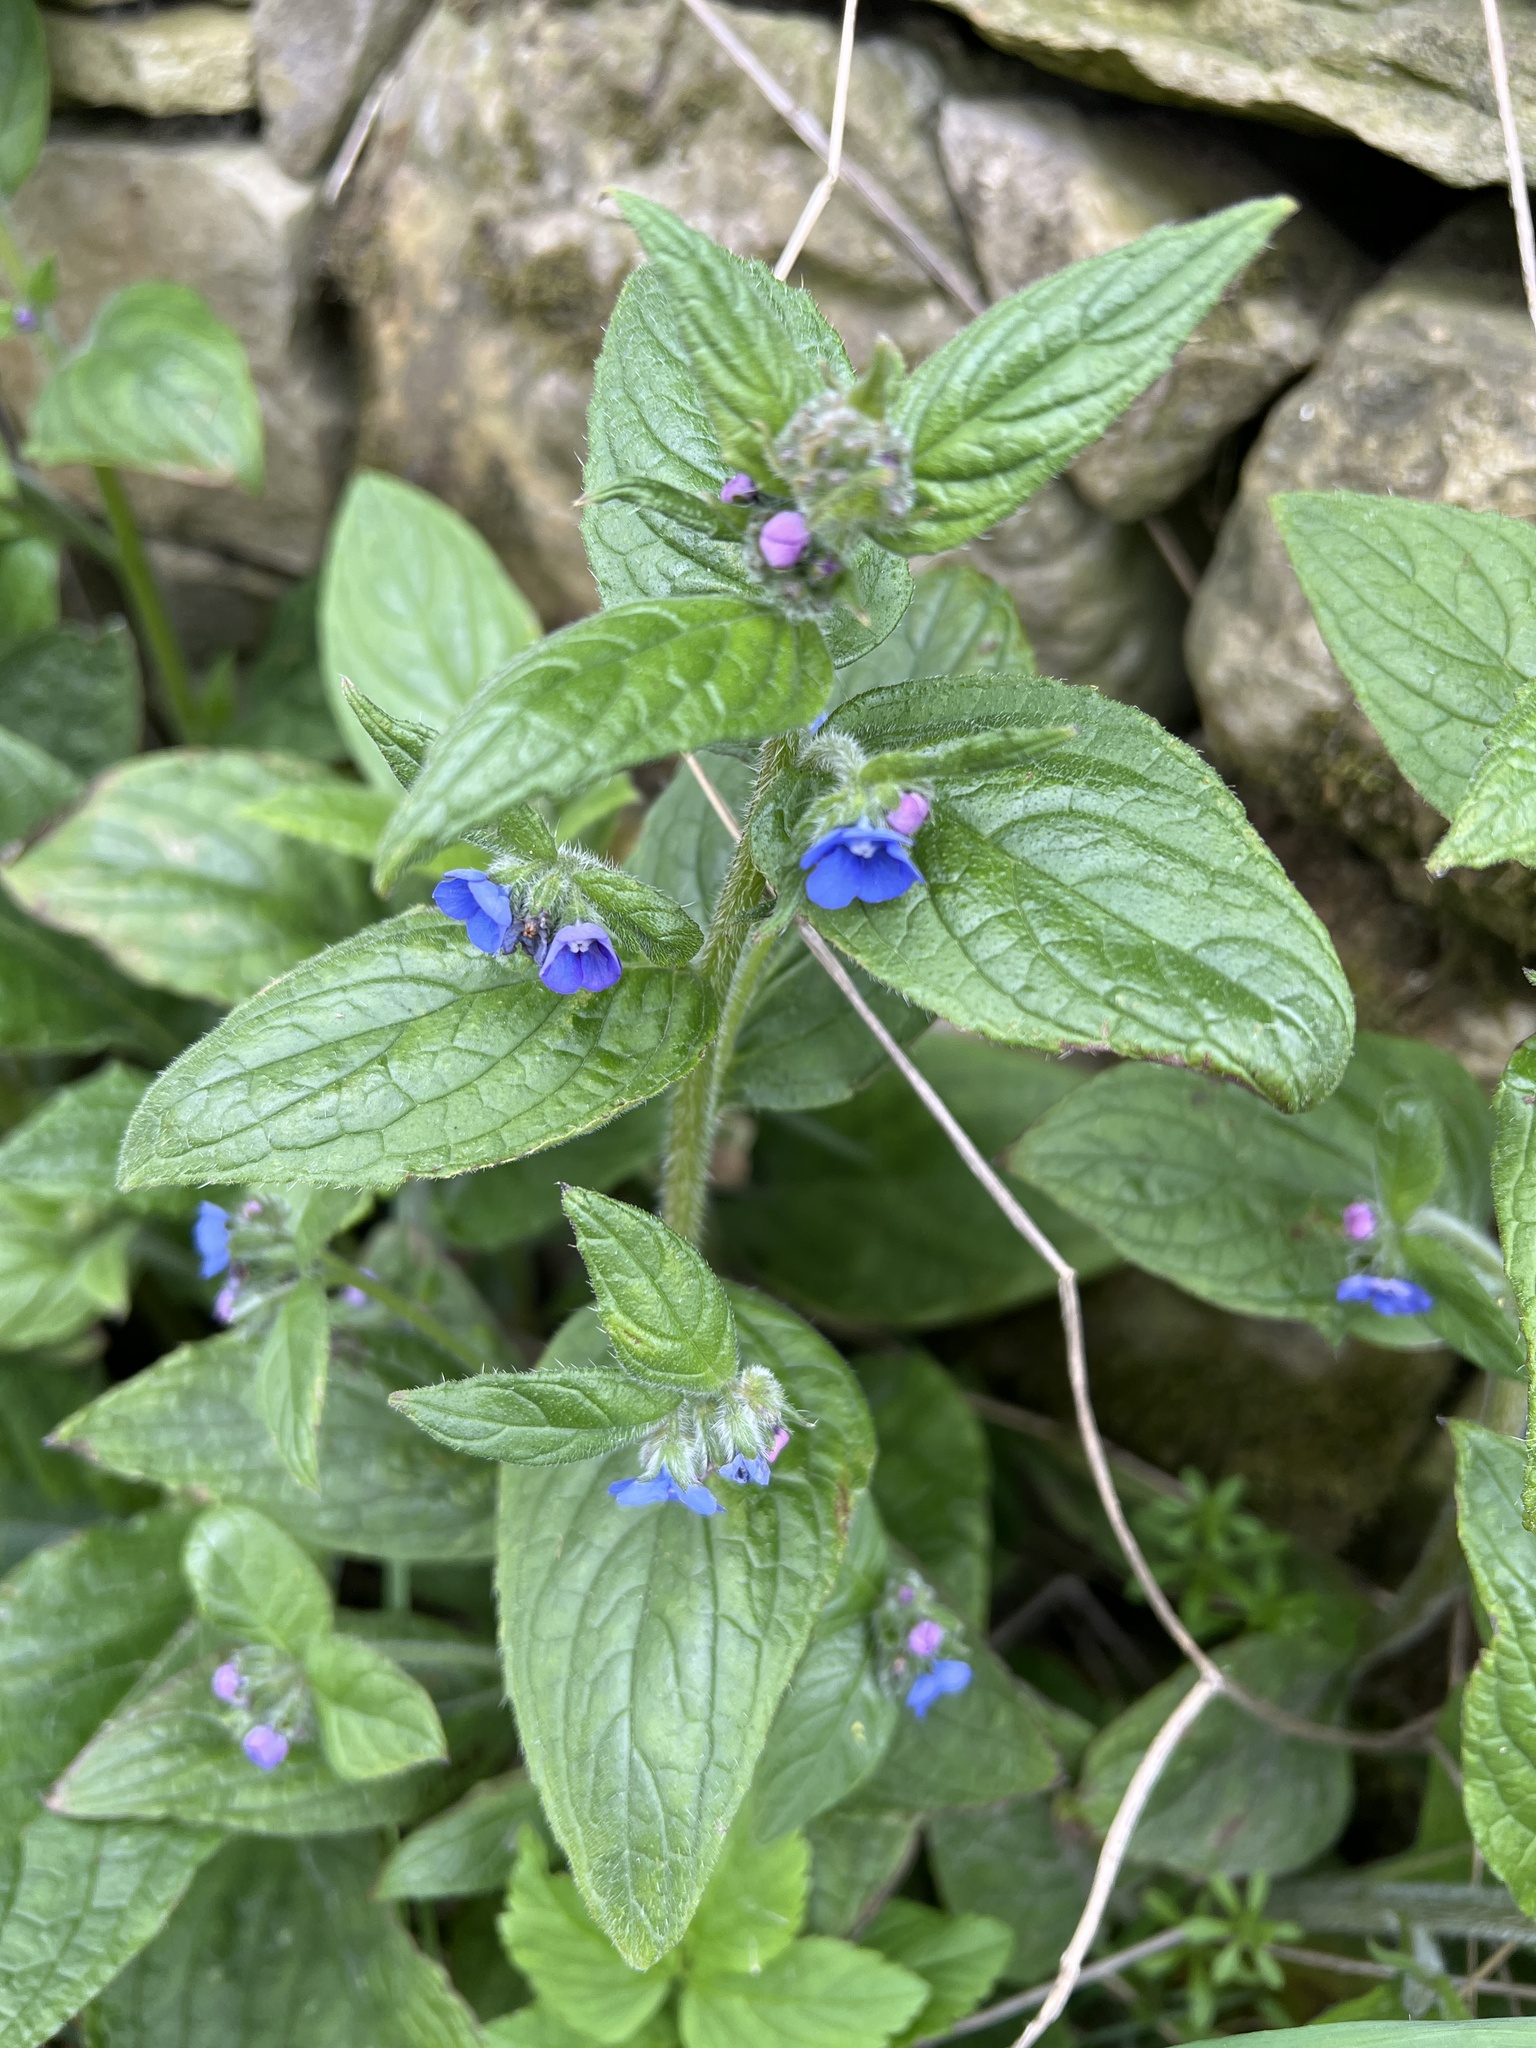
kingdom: Plantae
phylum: Tracheophyta
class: Magnoliopsida
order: Boraginales
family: Boraginaceae
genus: Pentaglottis
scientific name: Pentaglottis sempervirens
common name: Green alkanet
